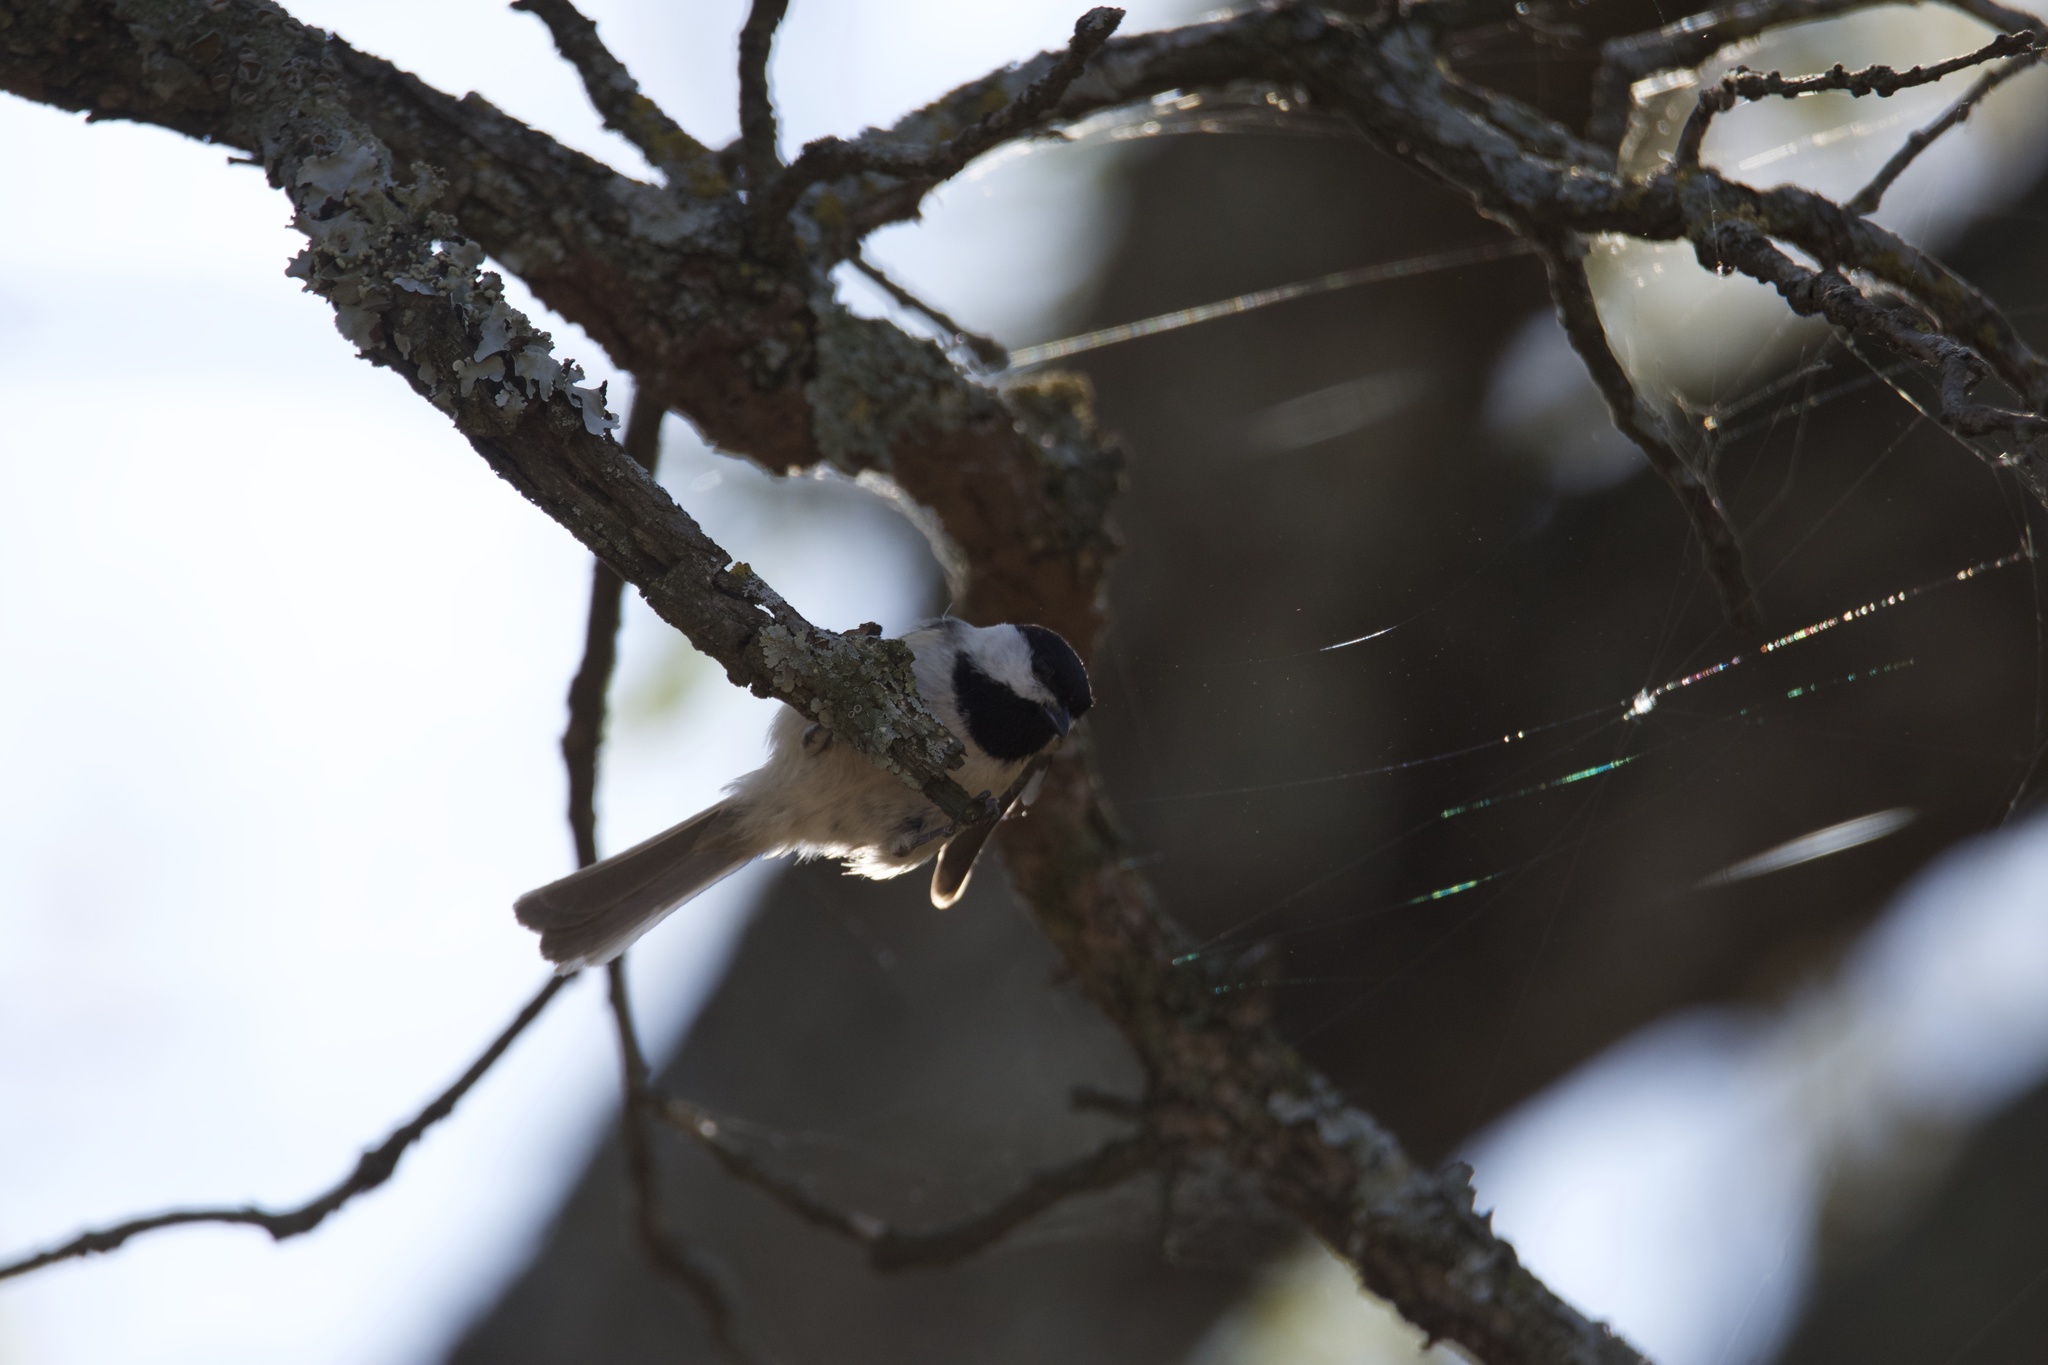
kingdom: Animalia
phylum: Chordata
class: Aves
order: Passeriformes
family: Paridae
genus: Poecile
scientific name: Poecile carolinensis
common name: Carolina chickadee
